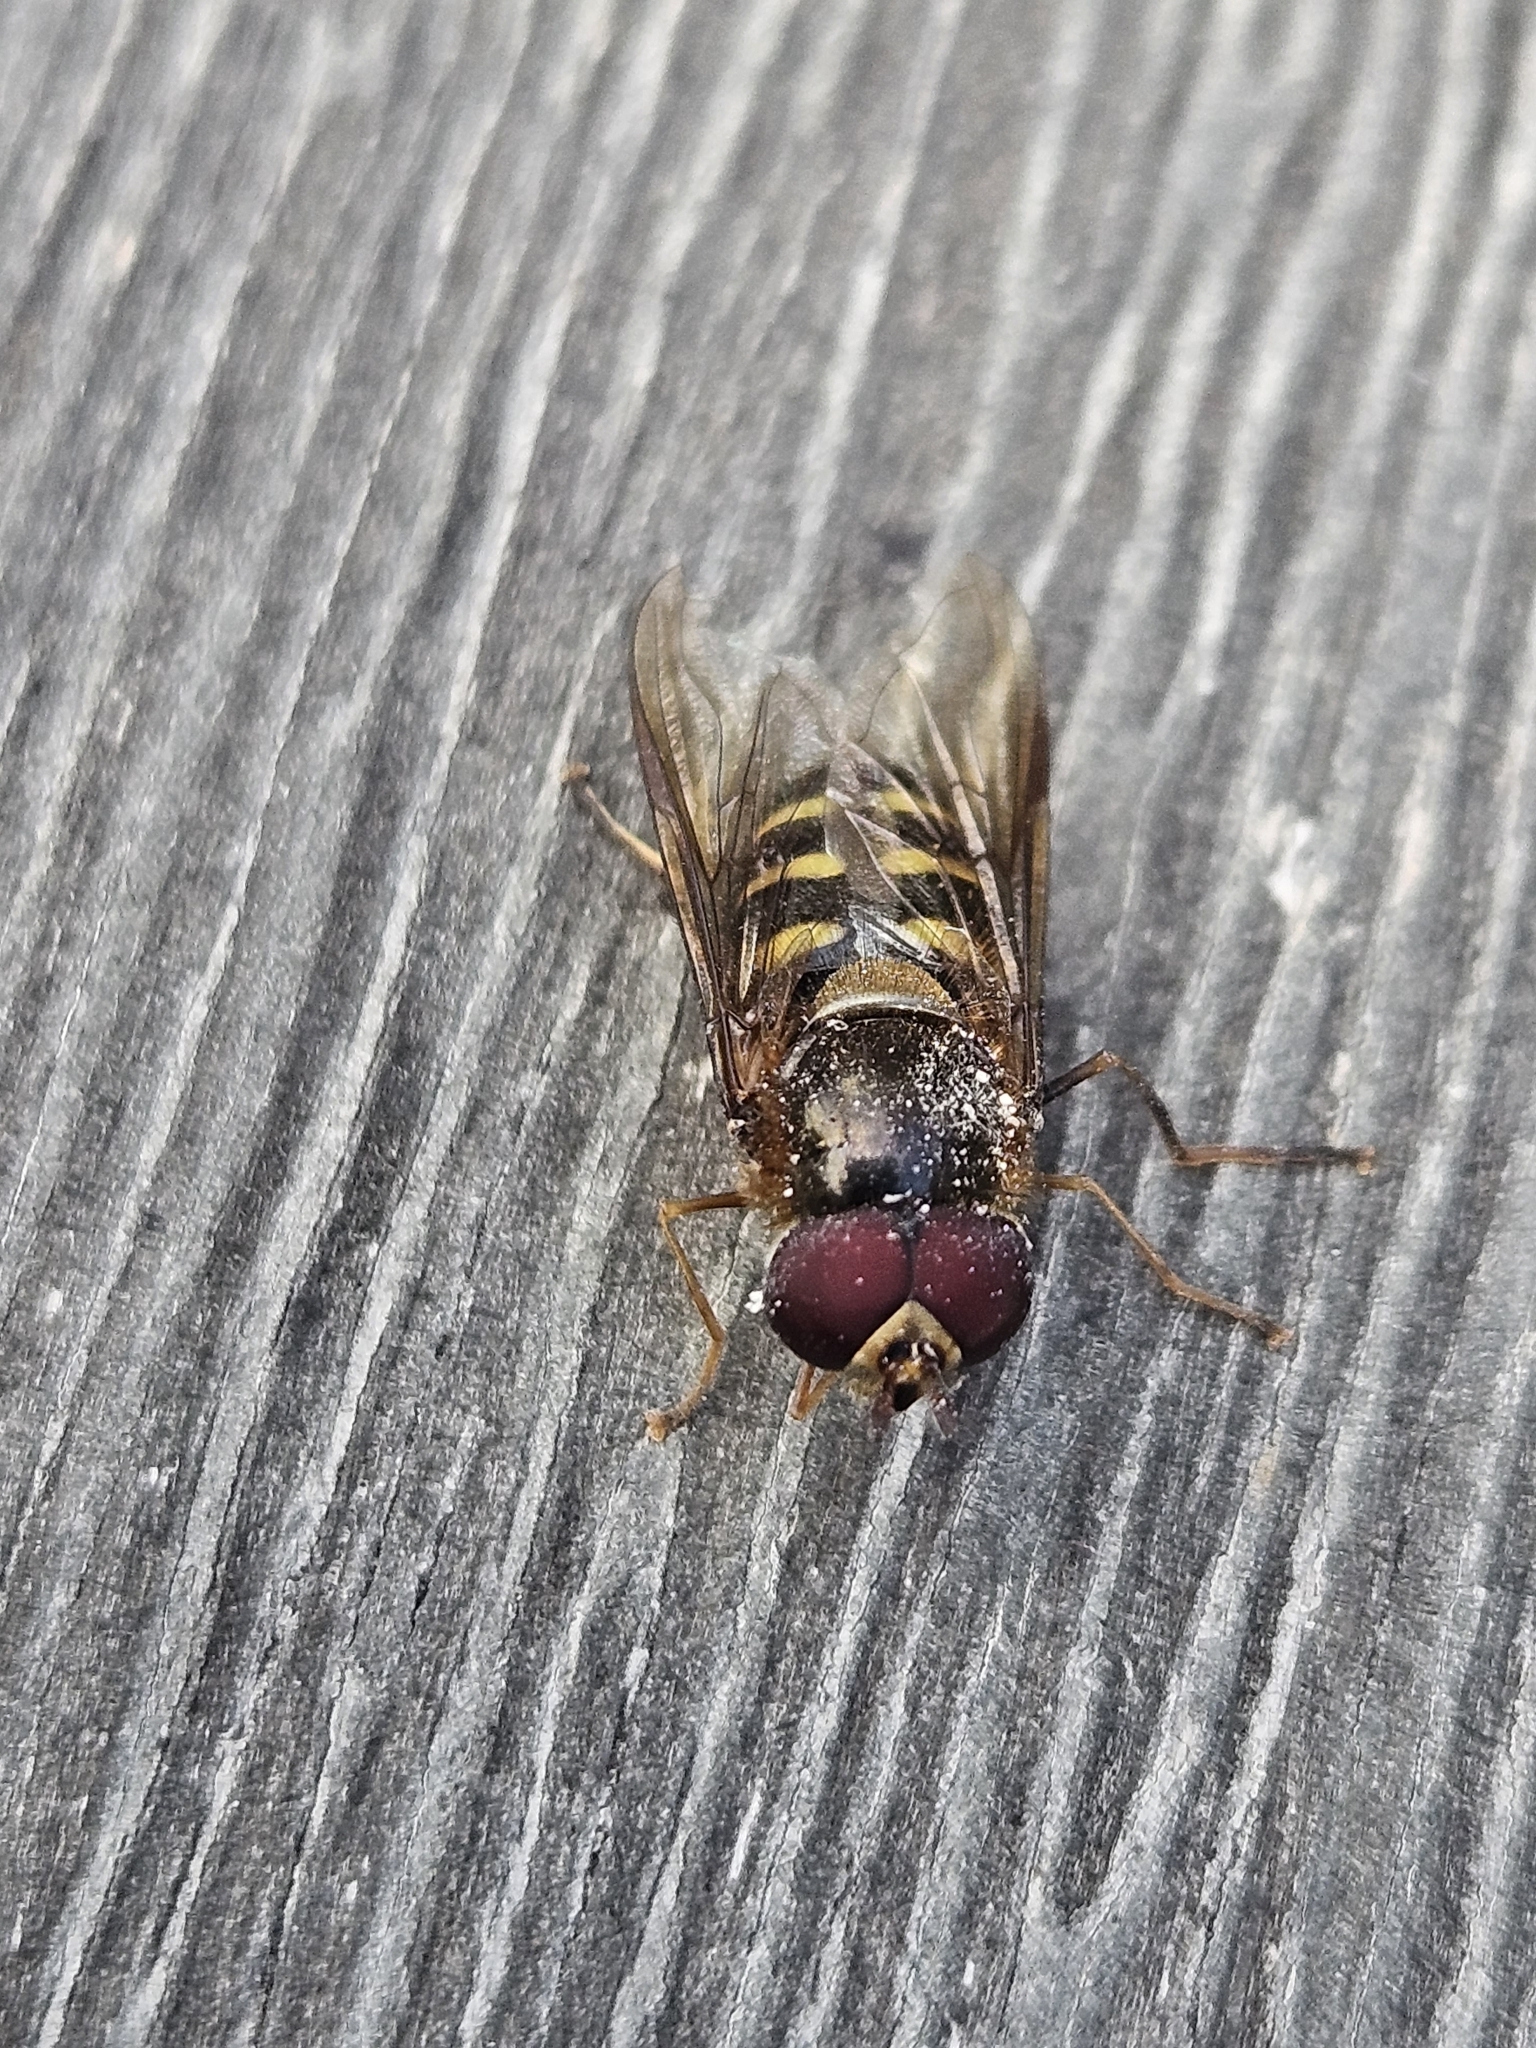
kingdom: Animalia
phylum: Arthropoda
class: Insecta
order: Diptera
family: Syrphidae
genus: Lapposyrphus
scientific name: Lapposyrphus lapponicus
